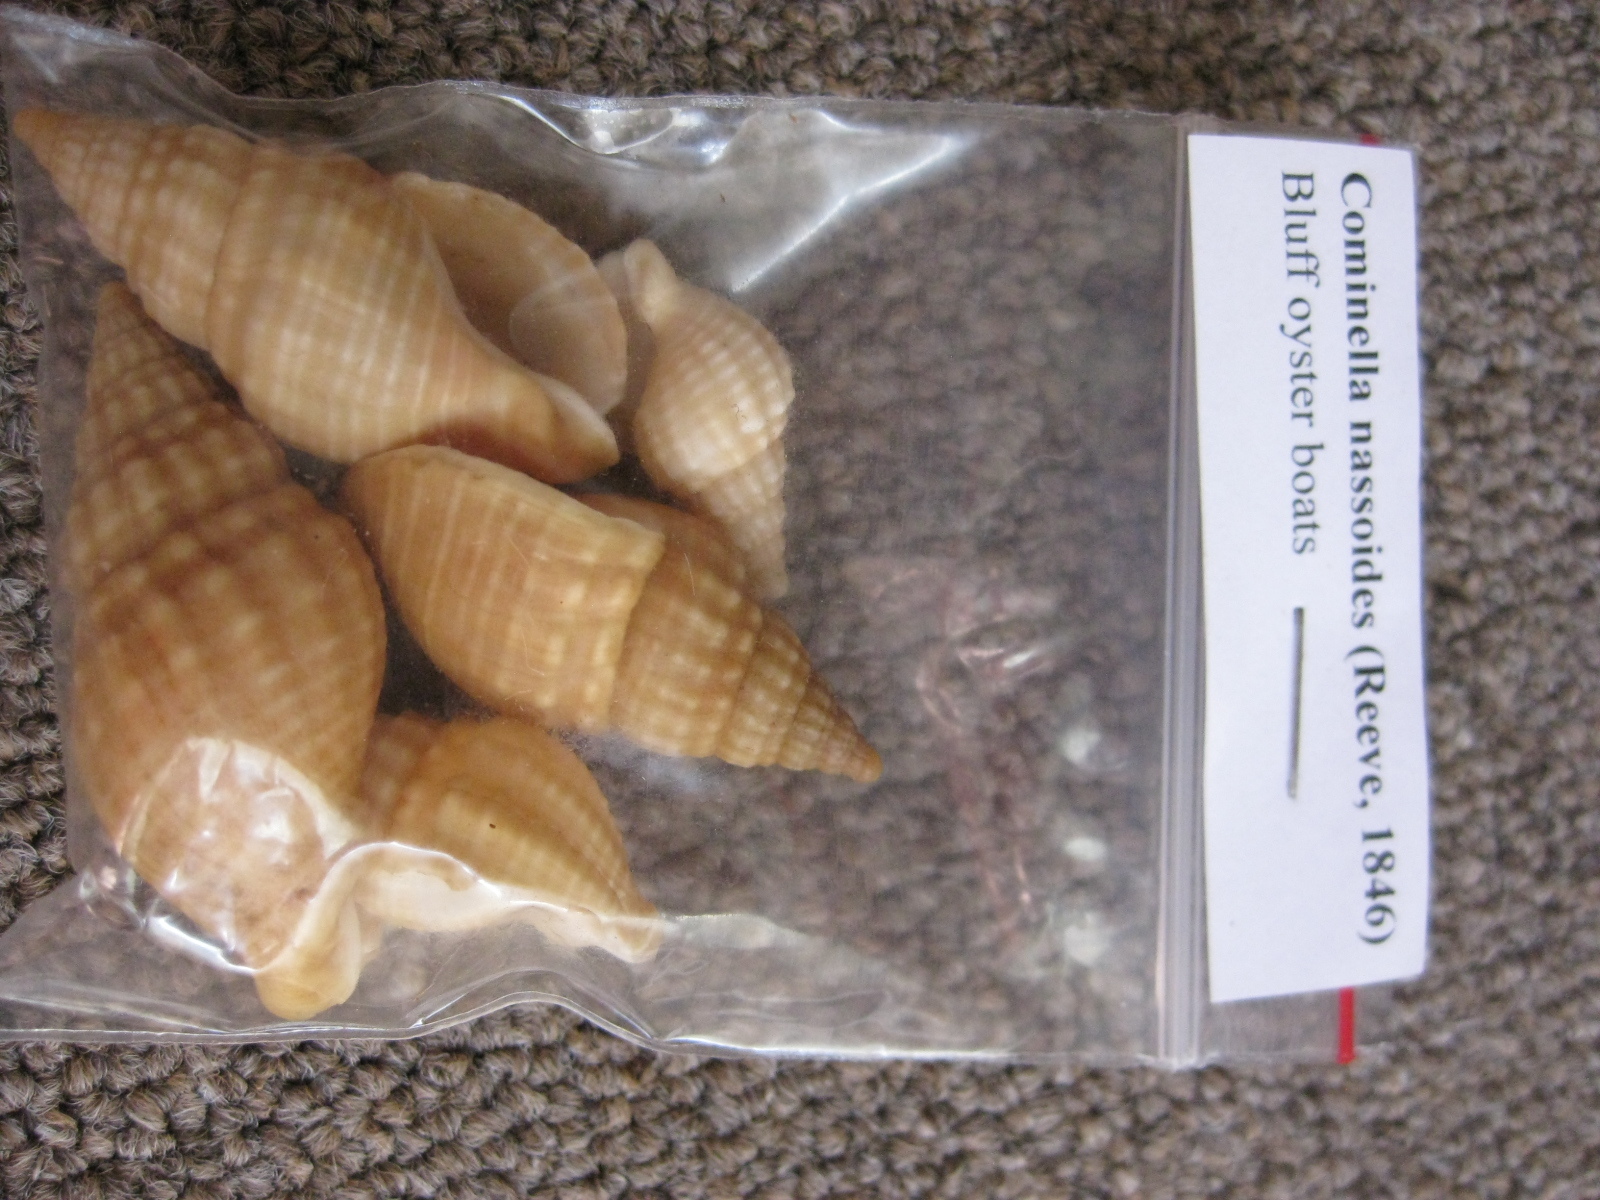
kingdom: Animalia
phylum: Mollusca
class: Gastropoda
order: Neogastropoda
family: Cominellidae
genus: Cominella
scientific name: Cominella nassoides
